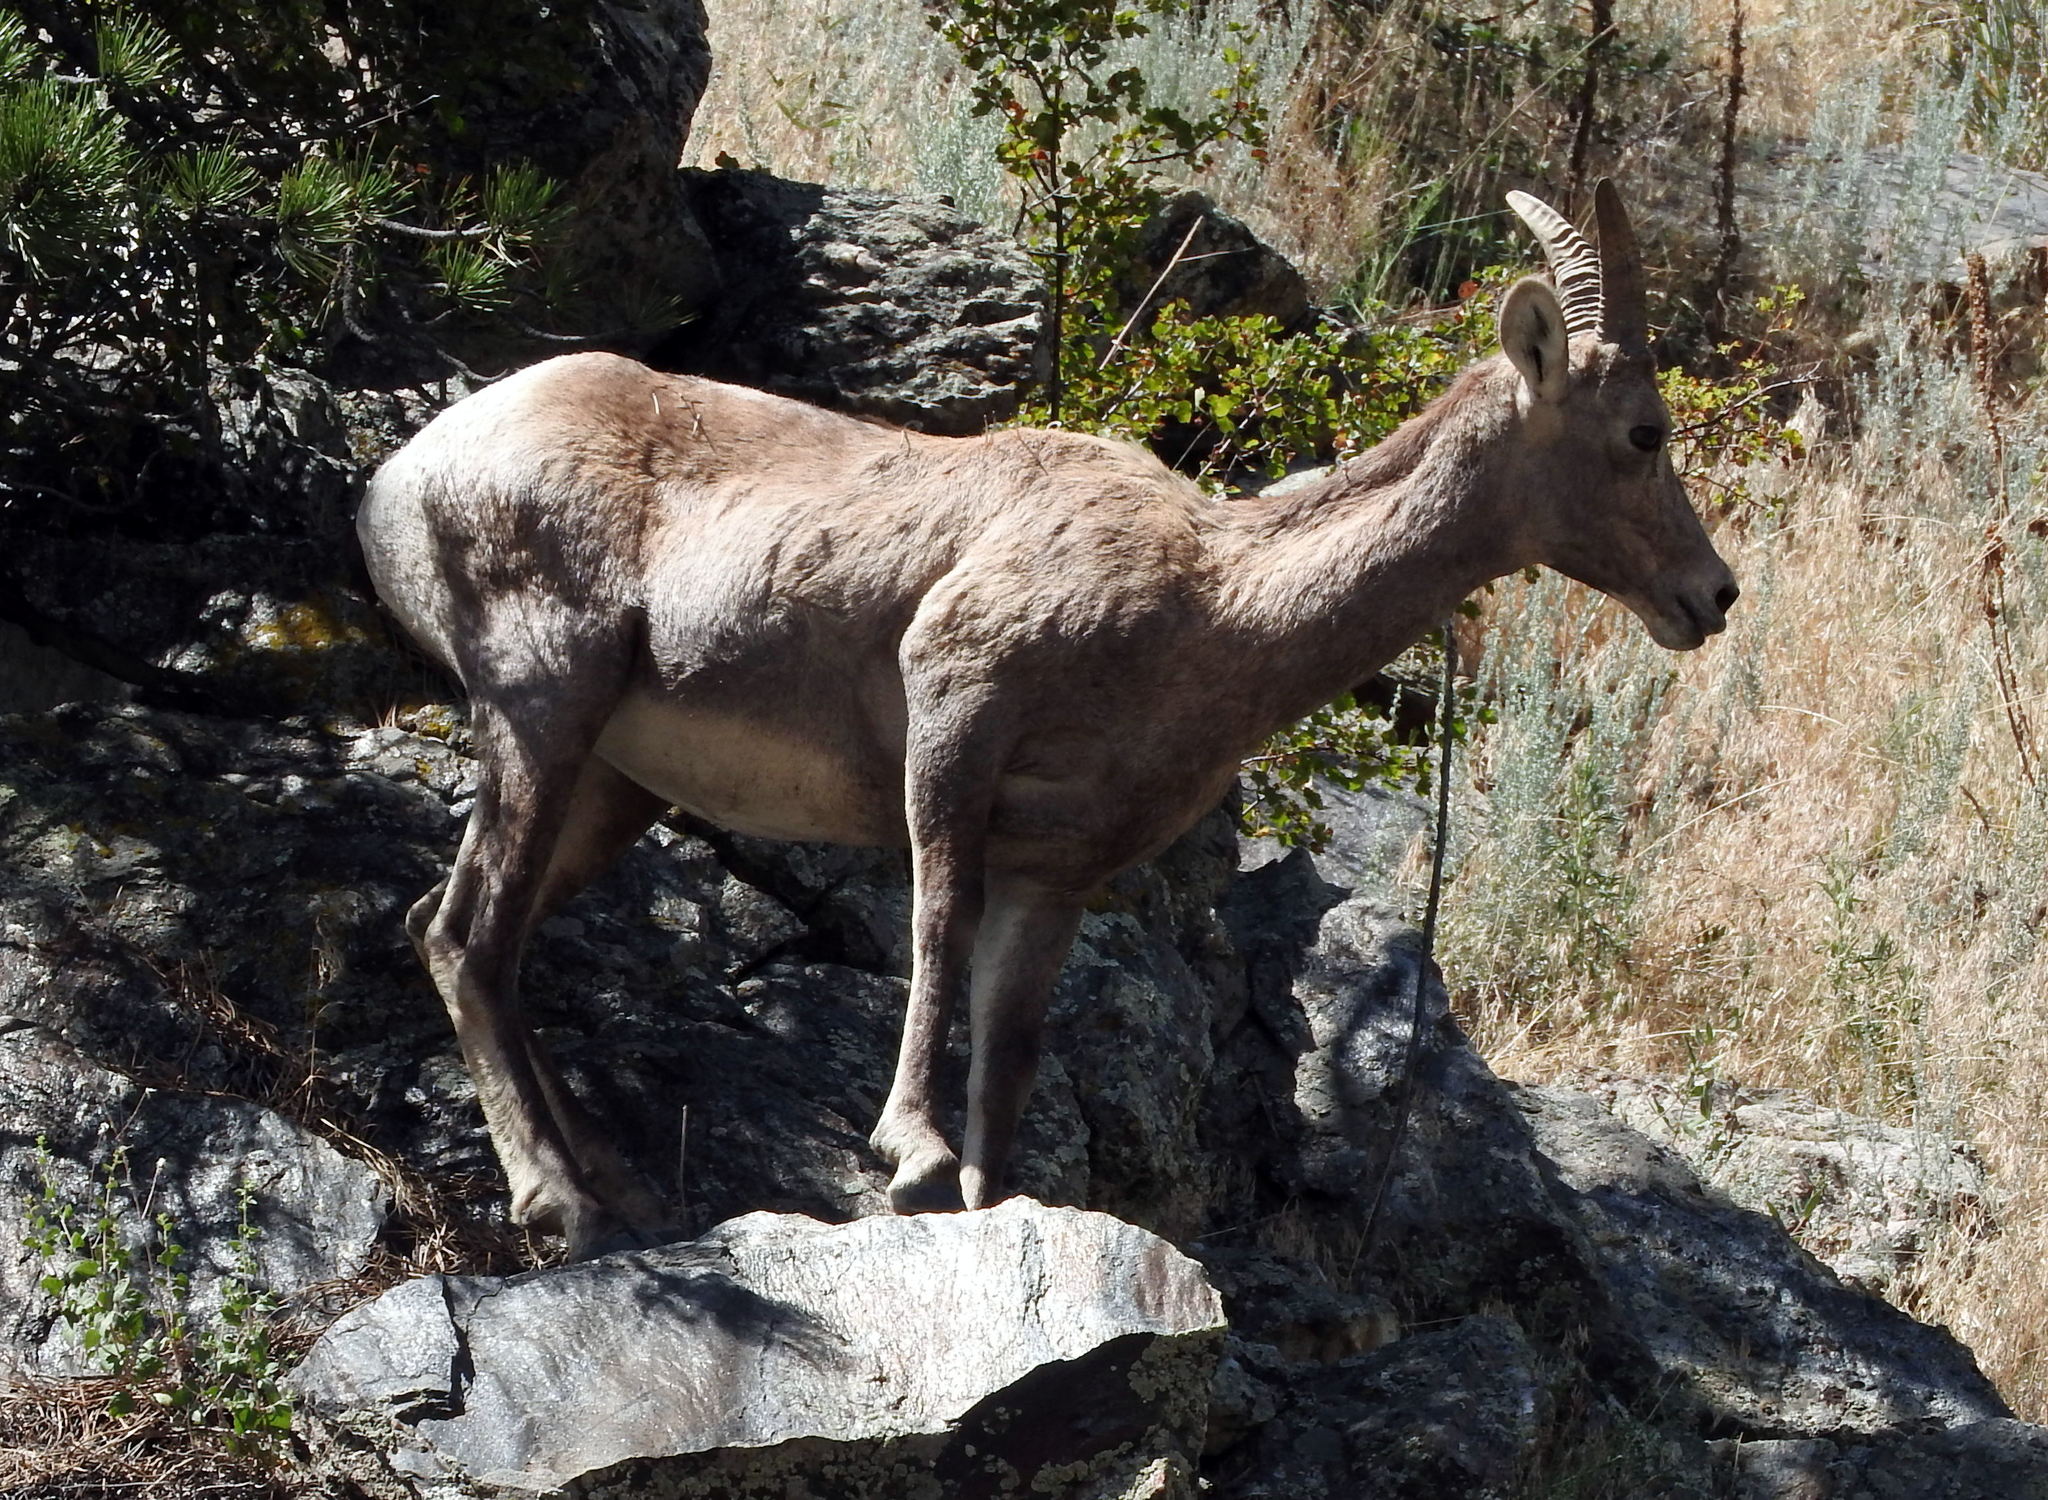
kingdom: Animalia
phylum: Chordata
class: Mammalia
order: Artiodactyla
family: Bovidae
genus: Ovis
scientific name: Ovis canadensis
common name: Bighorn sheep
